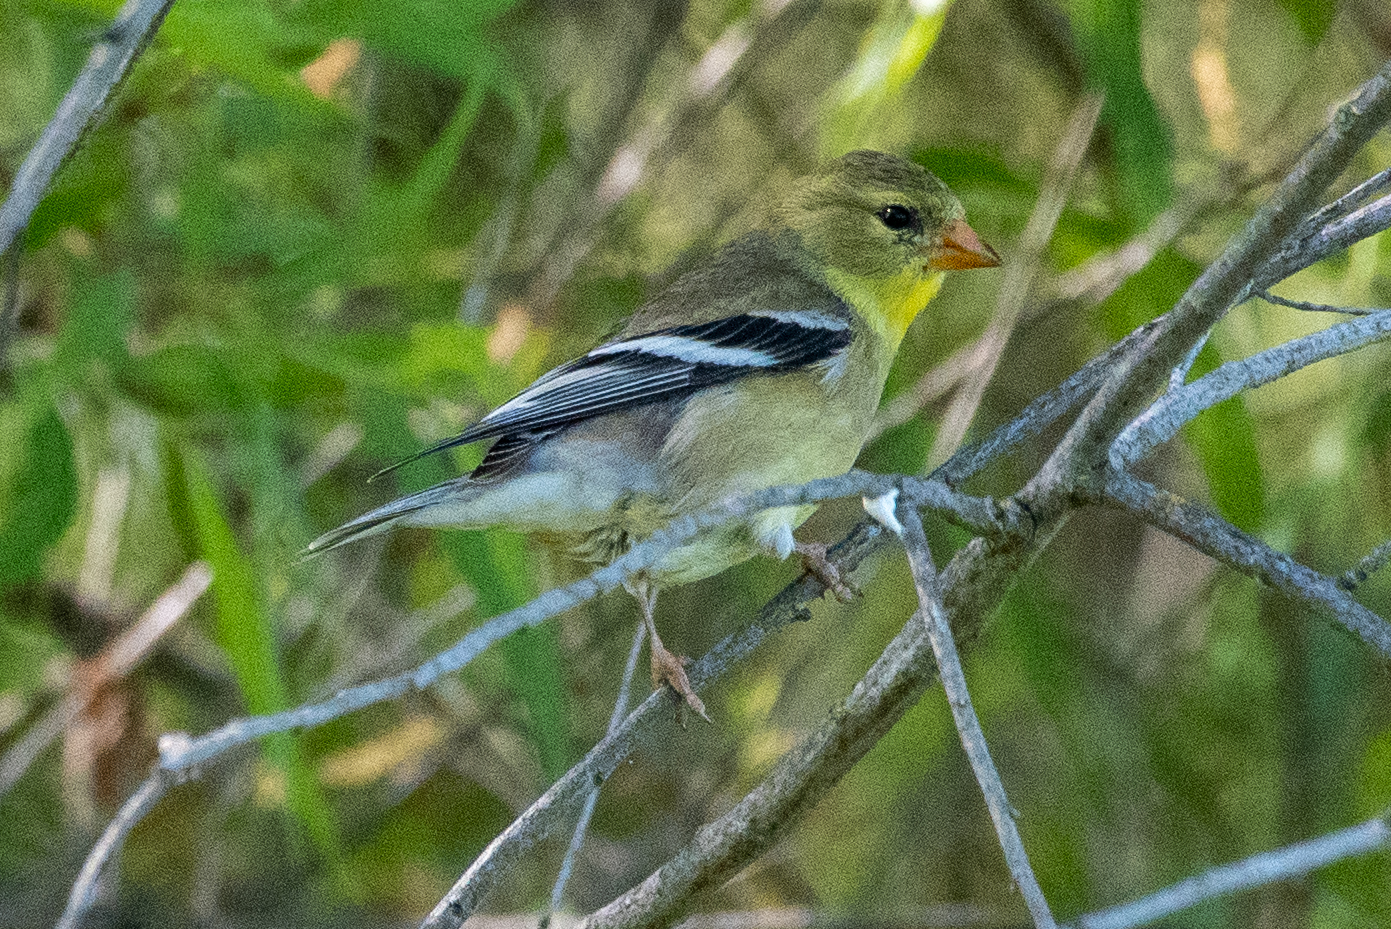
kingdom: Animalia
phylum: Chordata
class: Aves
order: Passeriformes
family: Fringillidae
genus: Spinus
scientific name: Spinus tristis
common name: American goldfinch
